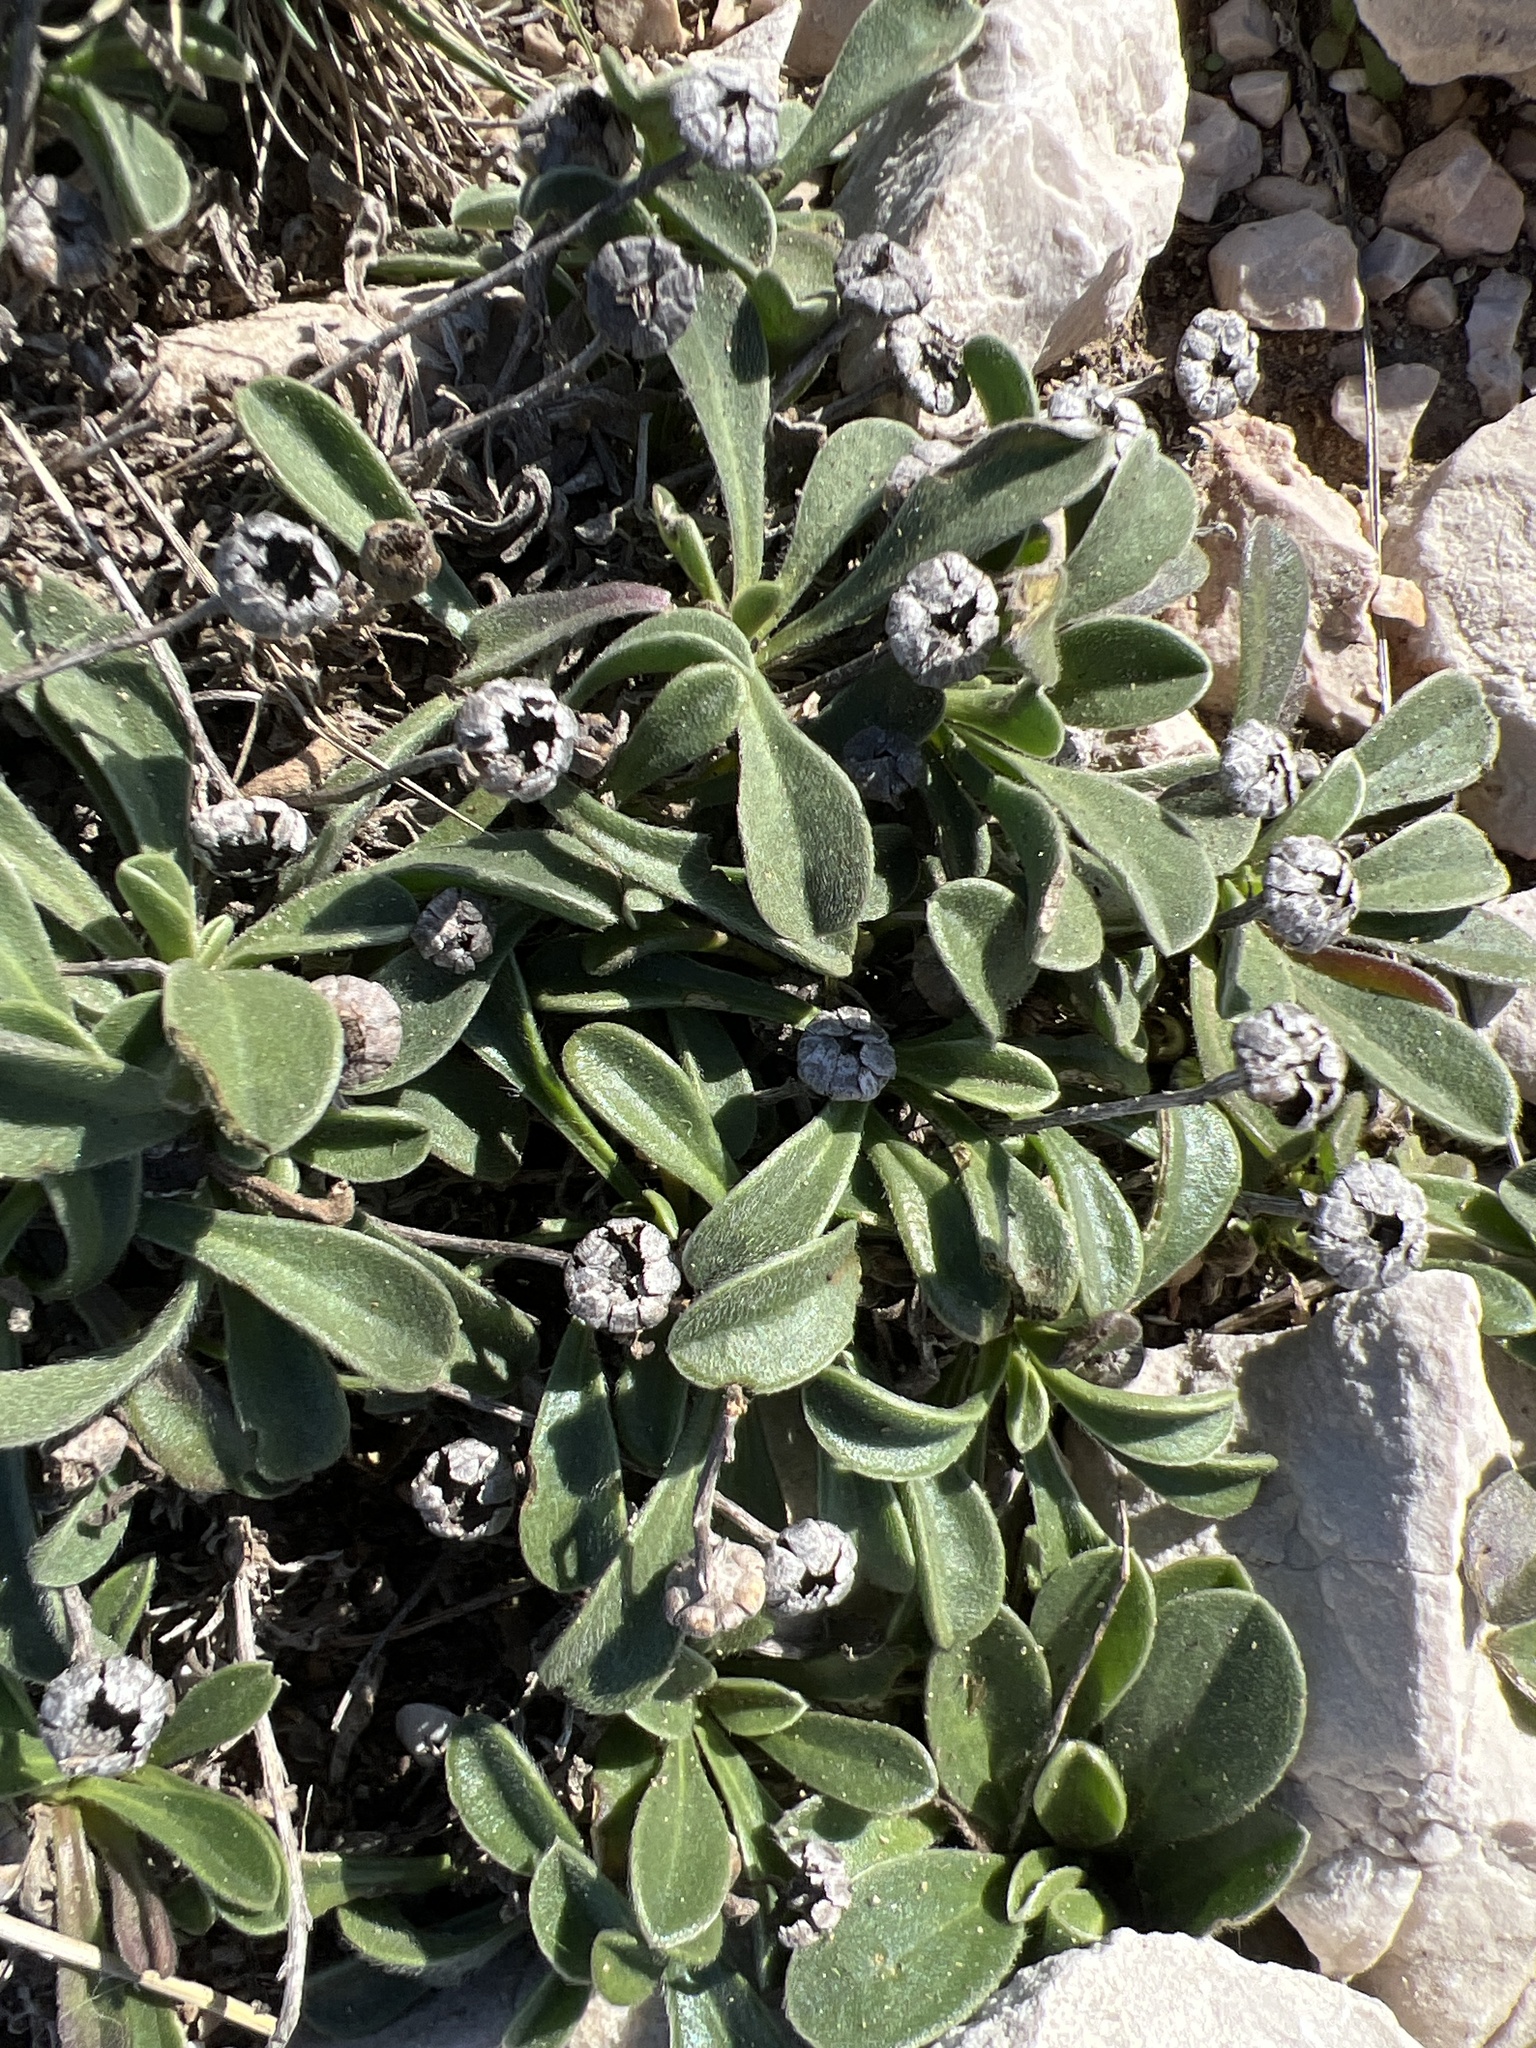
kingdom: Plantae
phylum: Tracheophyta
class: Magnoliopsida
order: Asterales
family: Asteraceae
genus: Pallenis
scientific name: Pallenis maritima
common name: Golden coin daisy
